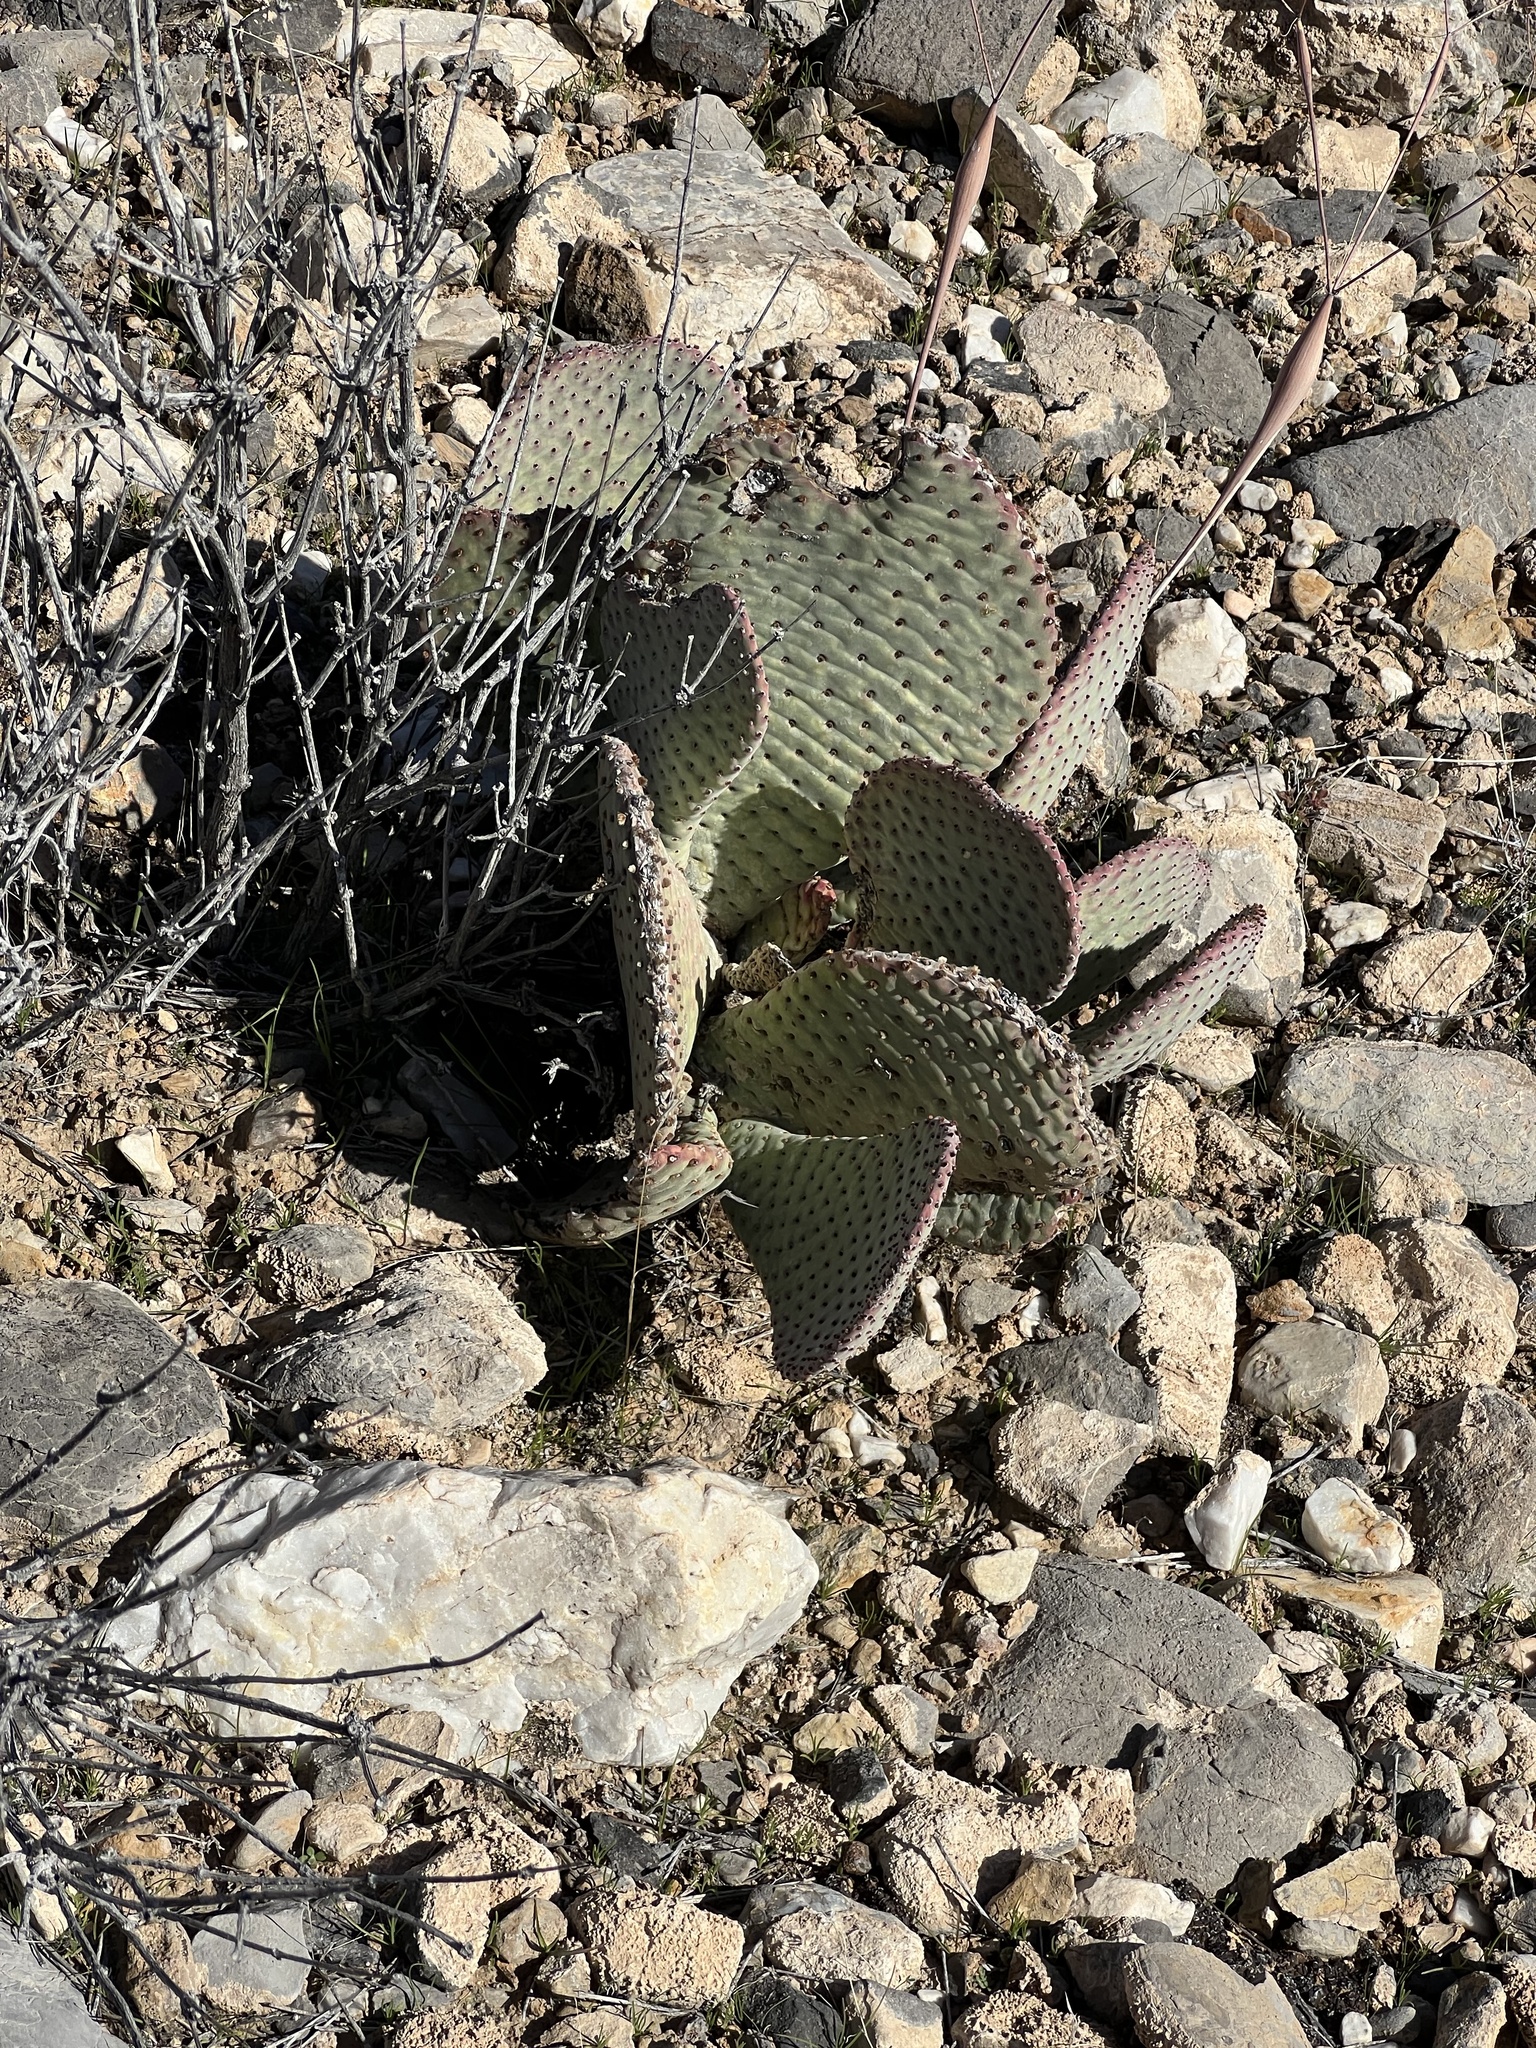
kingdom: Plantae
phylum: Tracheophyta
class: Magnoliopsida
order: Caryophyllales
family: Cactaceae
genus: Opuntia
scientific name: Opuntia basilaris
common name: Beavertail prickly-pear
